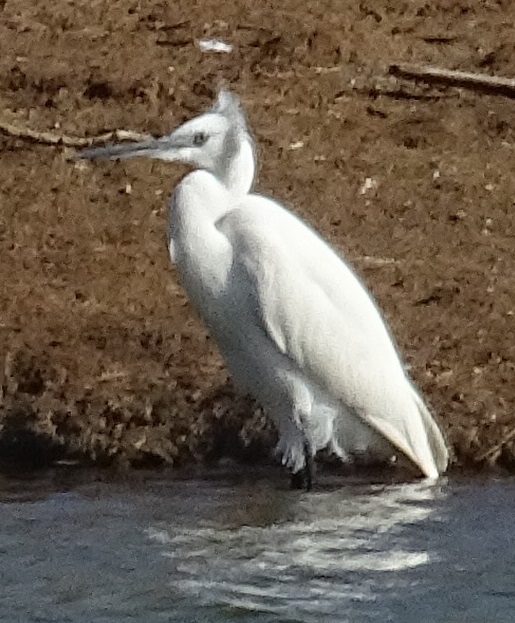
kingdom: Animalia
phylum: Chordata
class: Aves
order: Pelecaniformes
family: Ardeidae
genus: Egretta
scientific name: Egretta garzetta
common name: Little egret
